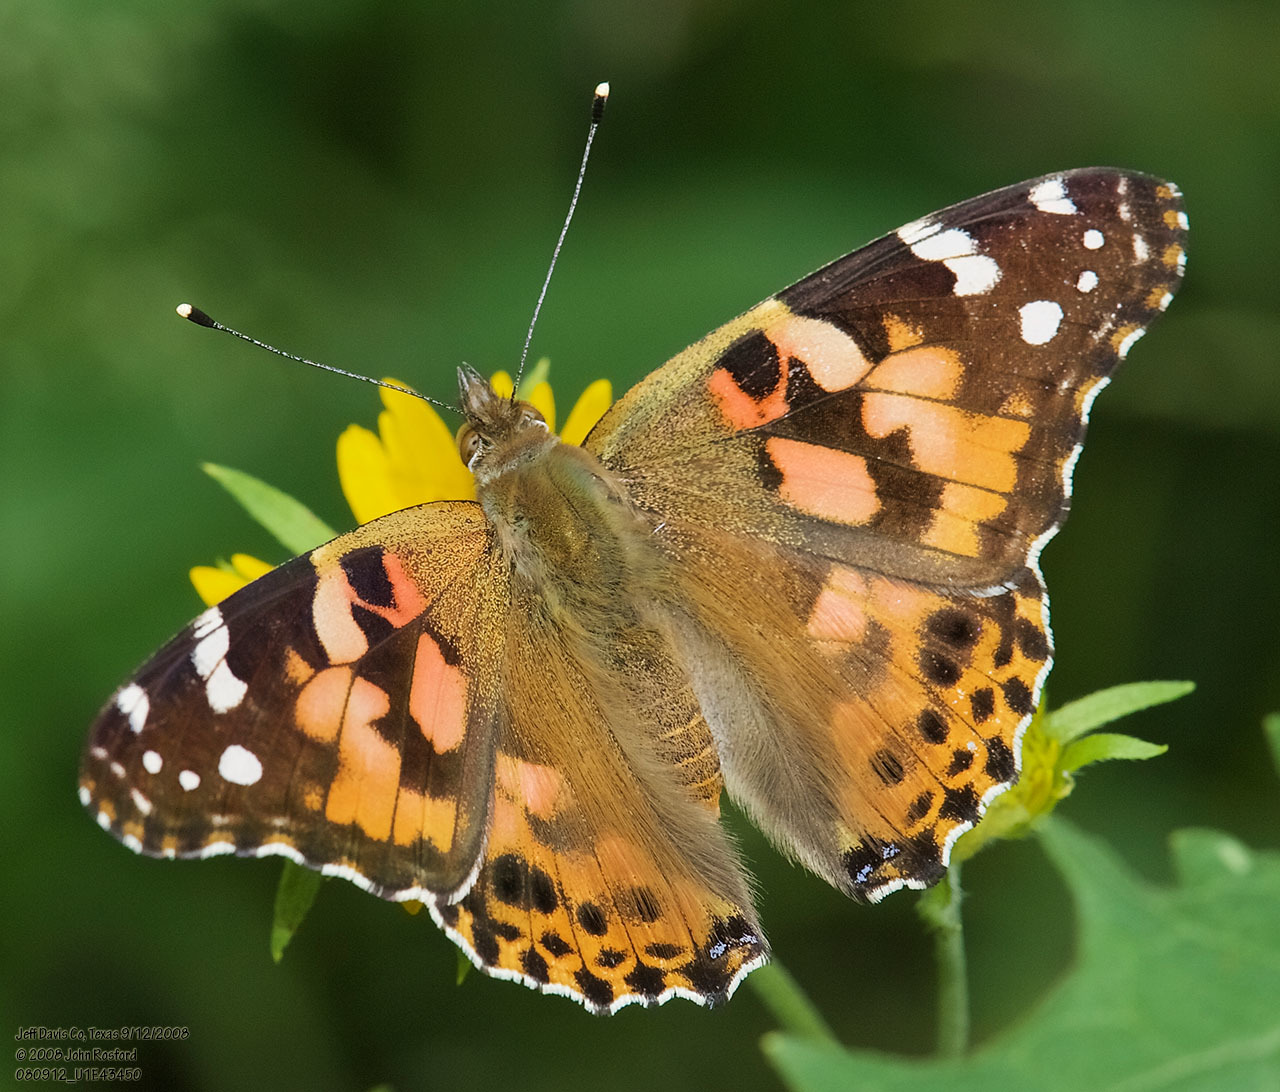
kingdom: Animalia
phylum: Arthropoda
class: Insecta
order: Lepidoptera
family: Nymphalidae
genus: Vanessa
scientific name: Vanessa cardui
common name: Painted lady
